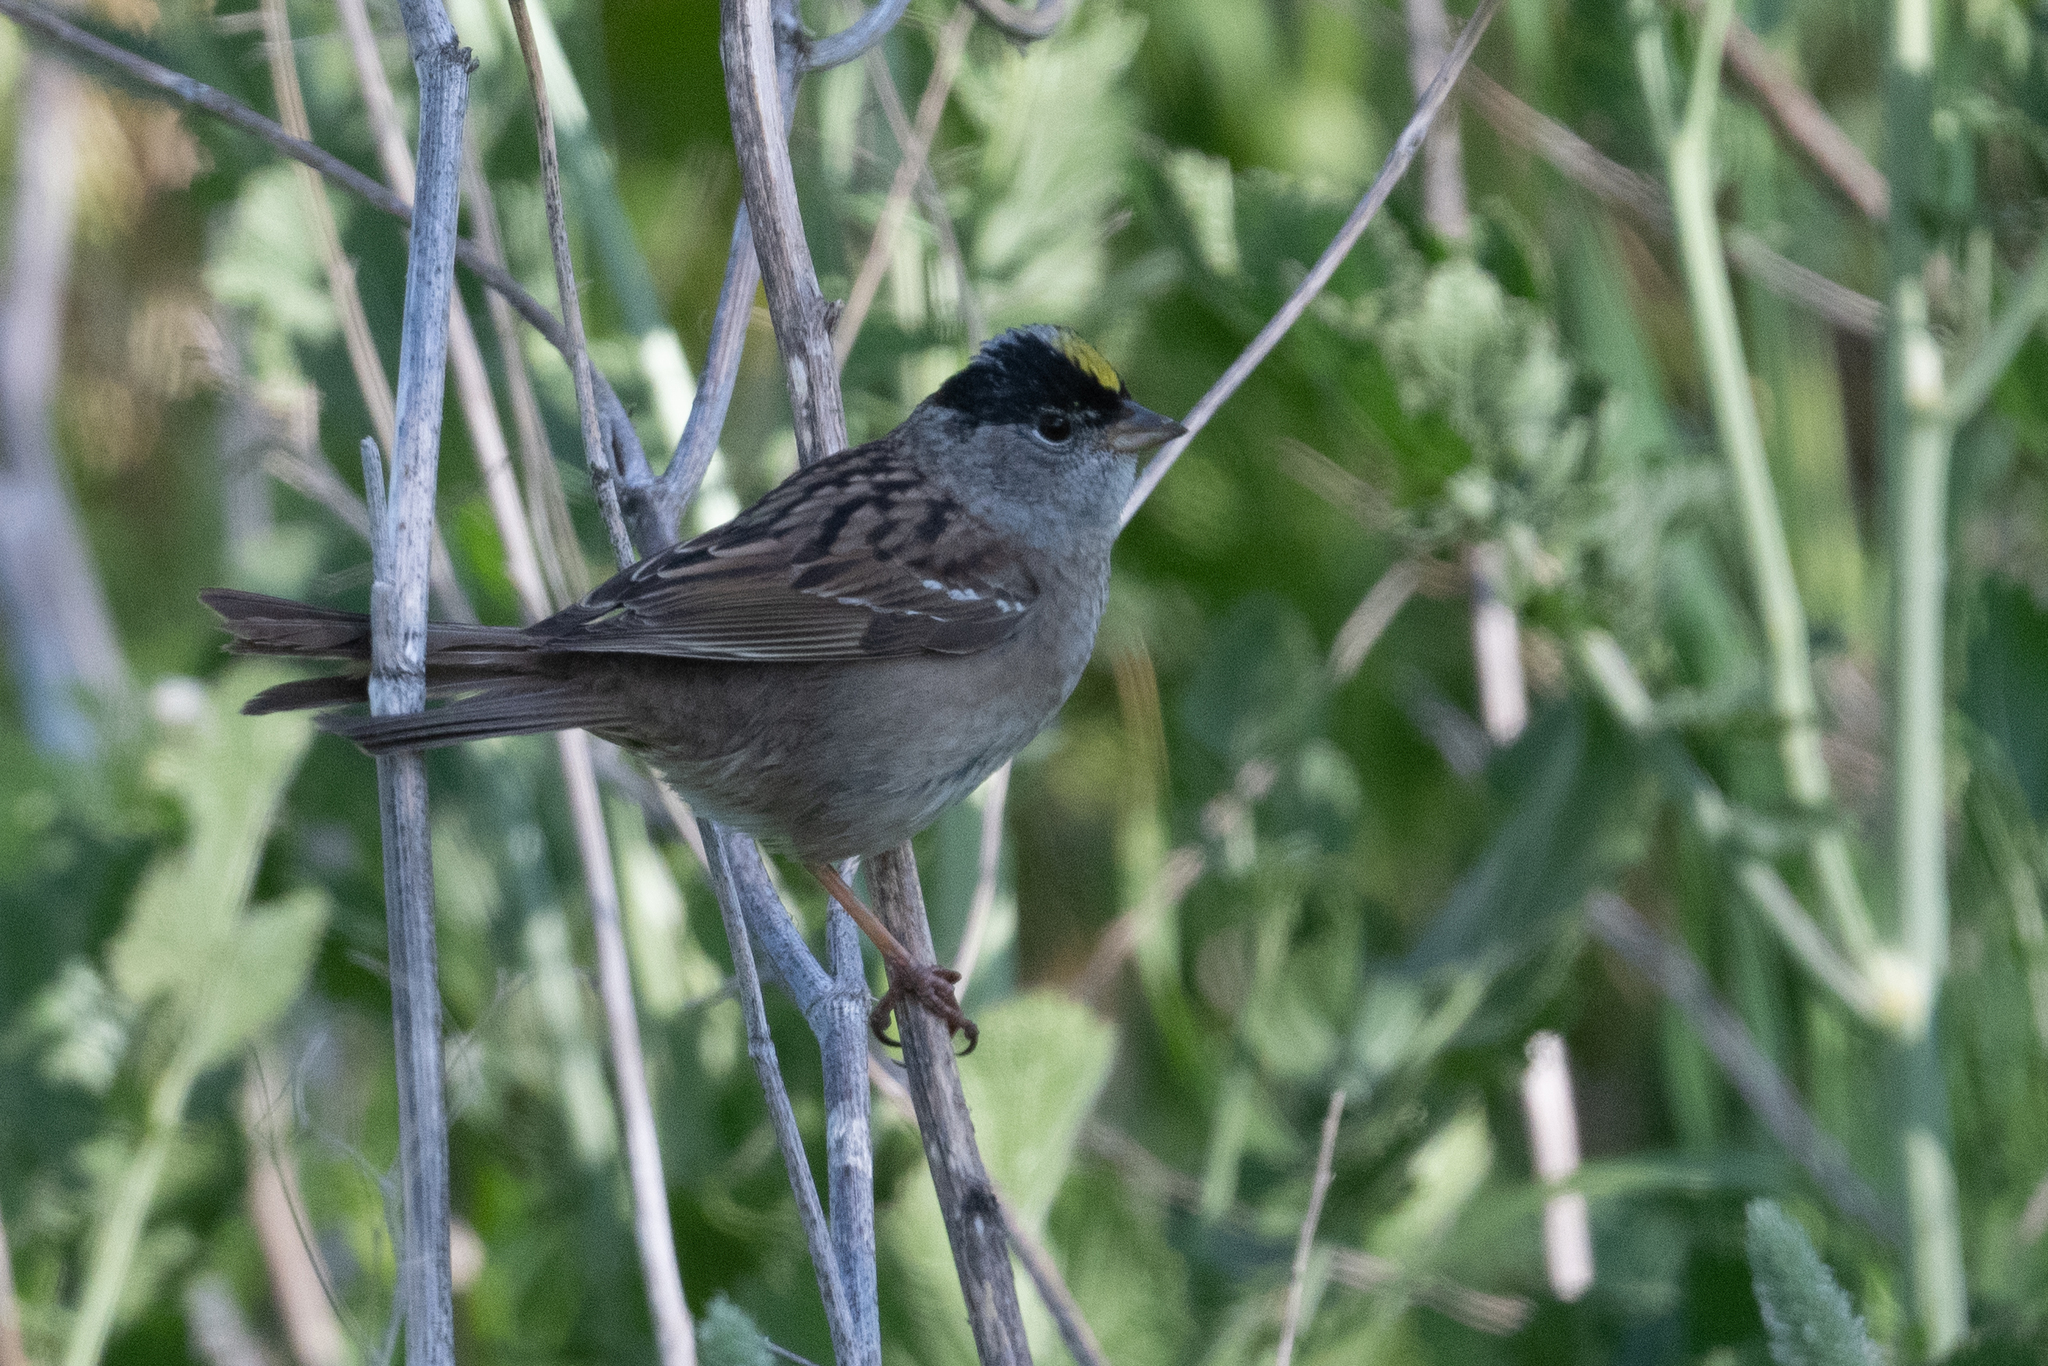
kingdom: Animalia
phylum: Chordata
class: Aves
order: Passeriformes
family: Passerellidae
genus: Zonotrichia
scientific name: Zonotrichia atricapilla
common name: Golden-crowned sparrow
